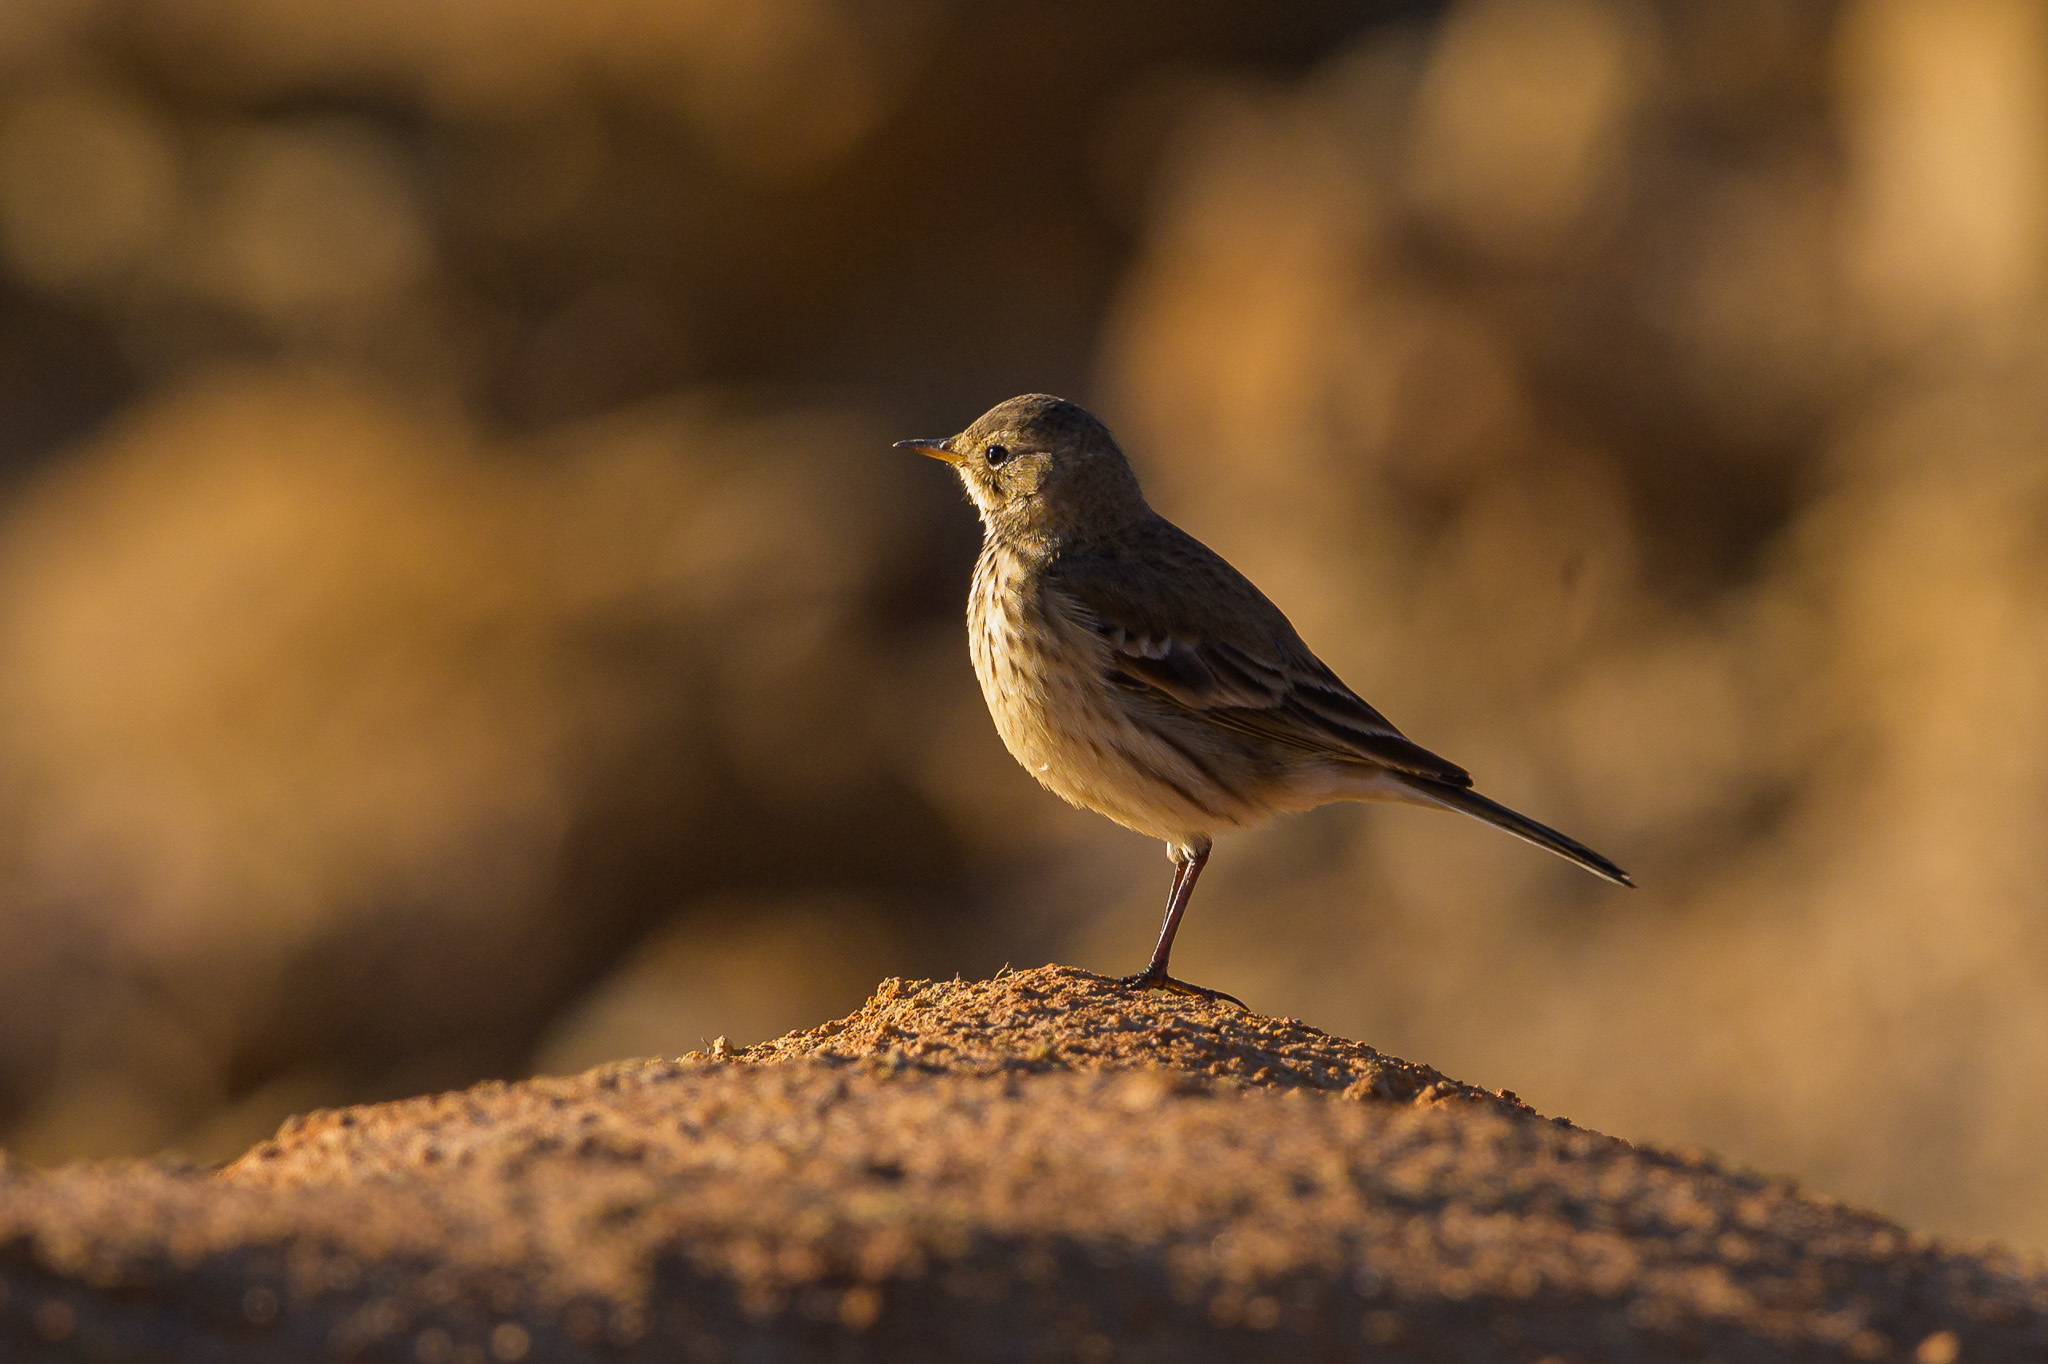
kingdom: Animalia
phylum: Chordata
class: Aves
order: Passeriformes
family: Motacillidae
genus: Anthus
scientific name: Anthus rubescens
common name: Buff-bellied pipit
